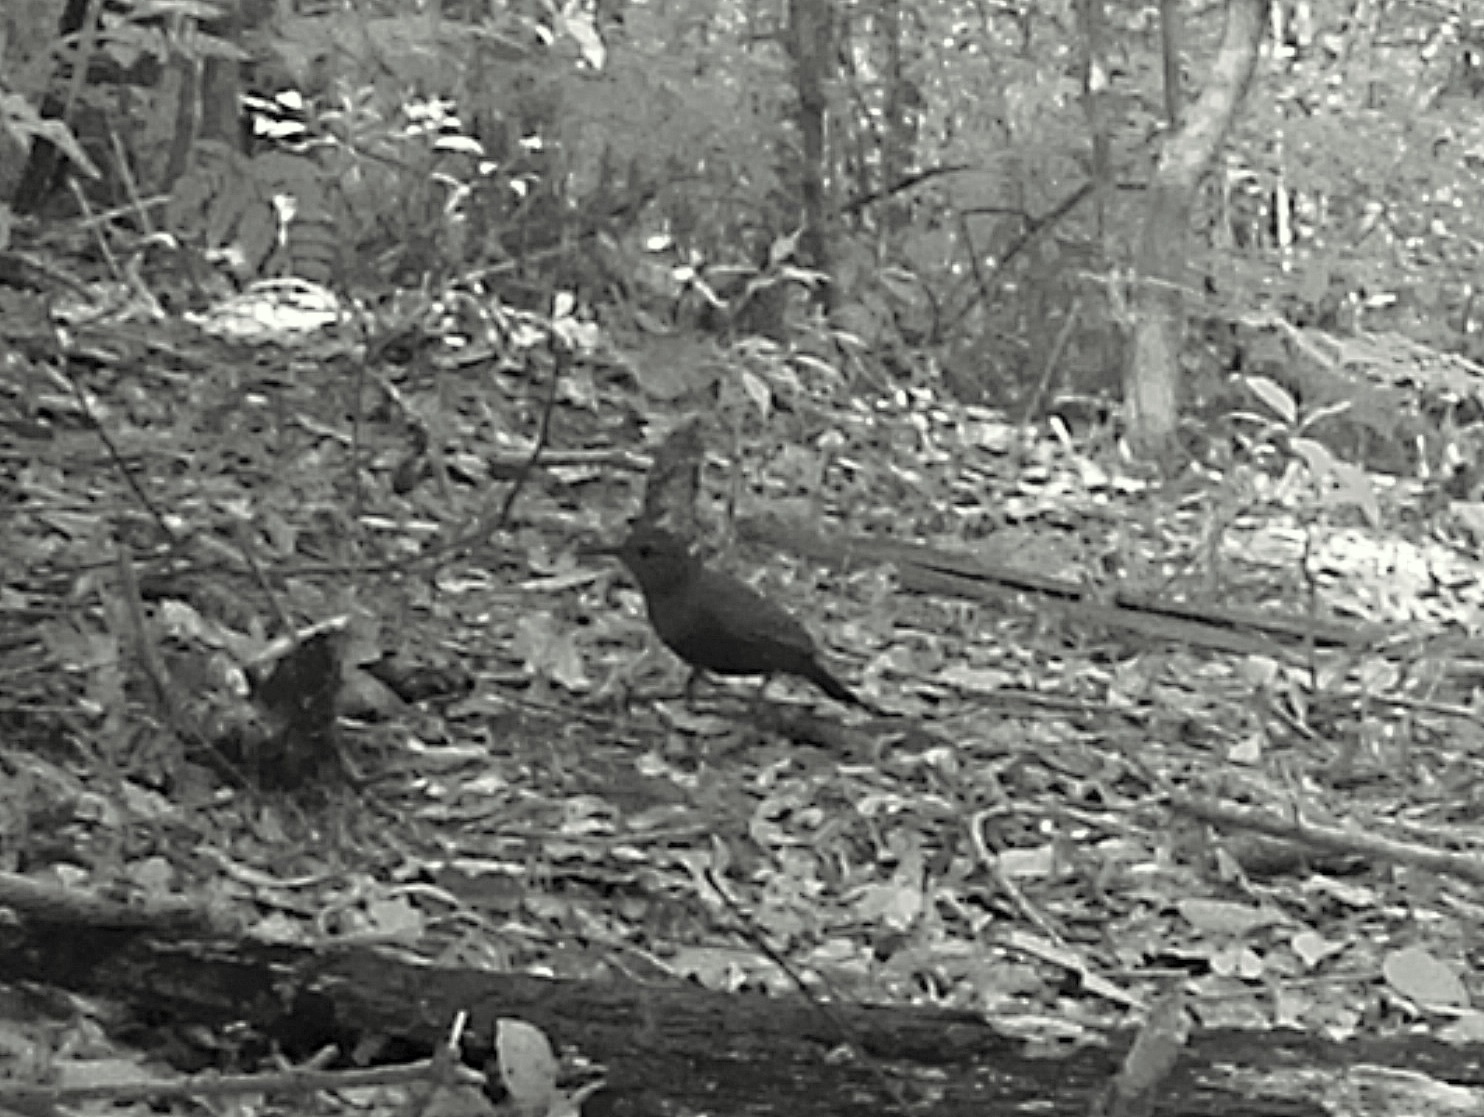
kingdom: Animalia
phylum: Chordata
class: Aves
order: Passeriformes
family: Furnariidae
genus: Sclerurus
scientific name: Sclerurus scansor
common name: Rufous-breasted leaftosser
